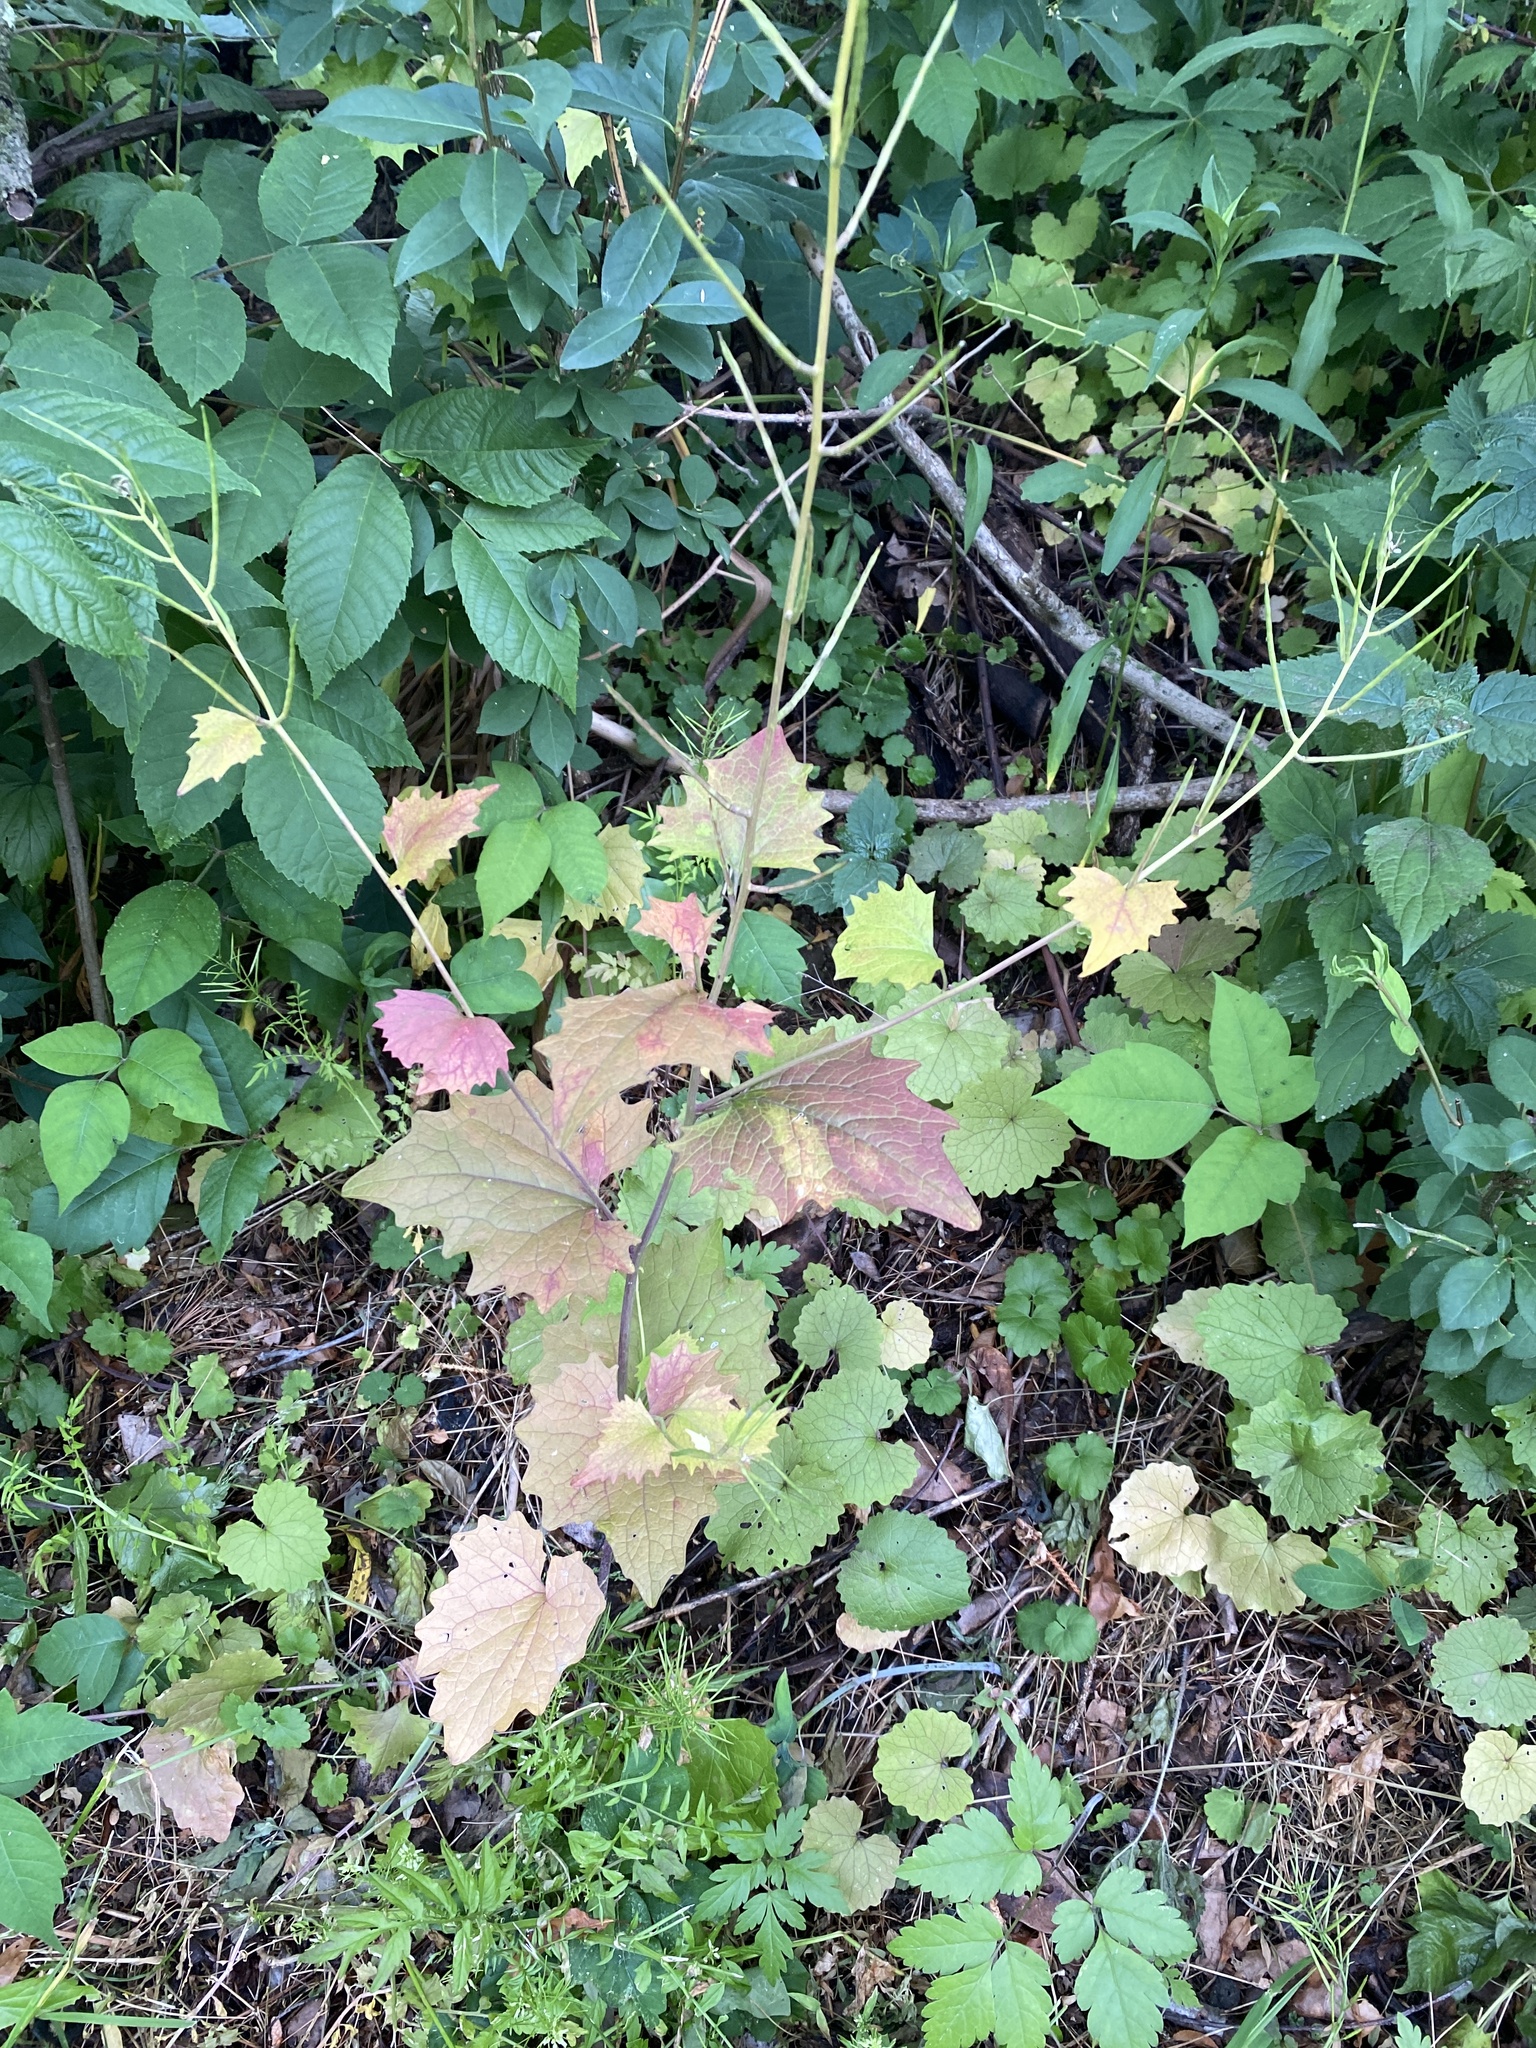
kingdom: Plantae
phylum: Tracheophyta
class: Magnoliopsida
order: Brassicales
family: Brassicaceae
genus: Alliaria
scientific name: Alliaria petiolata
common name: Garlic mustard
